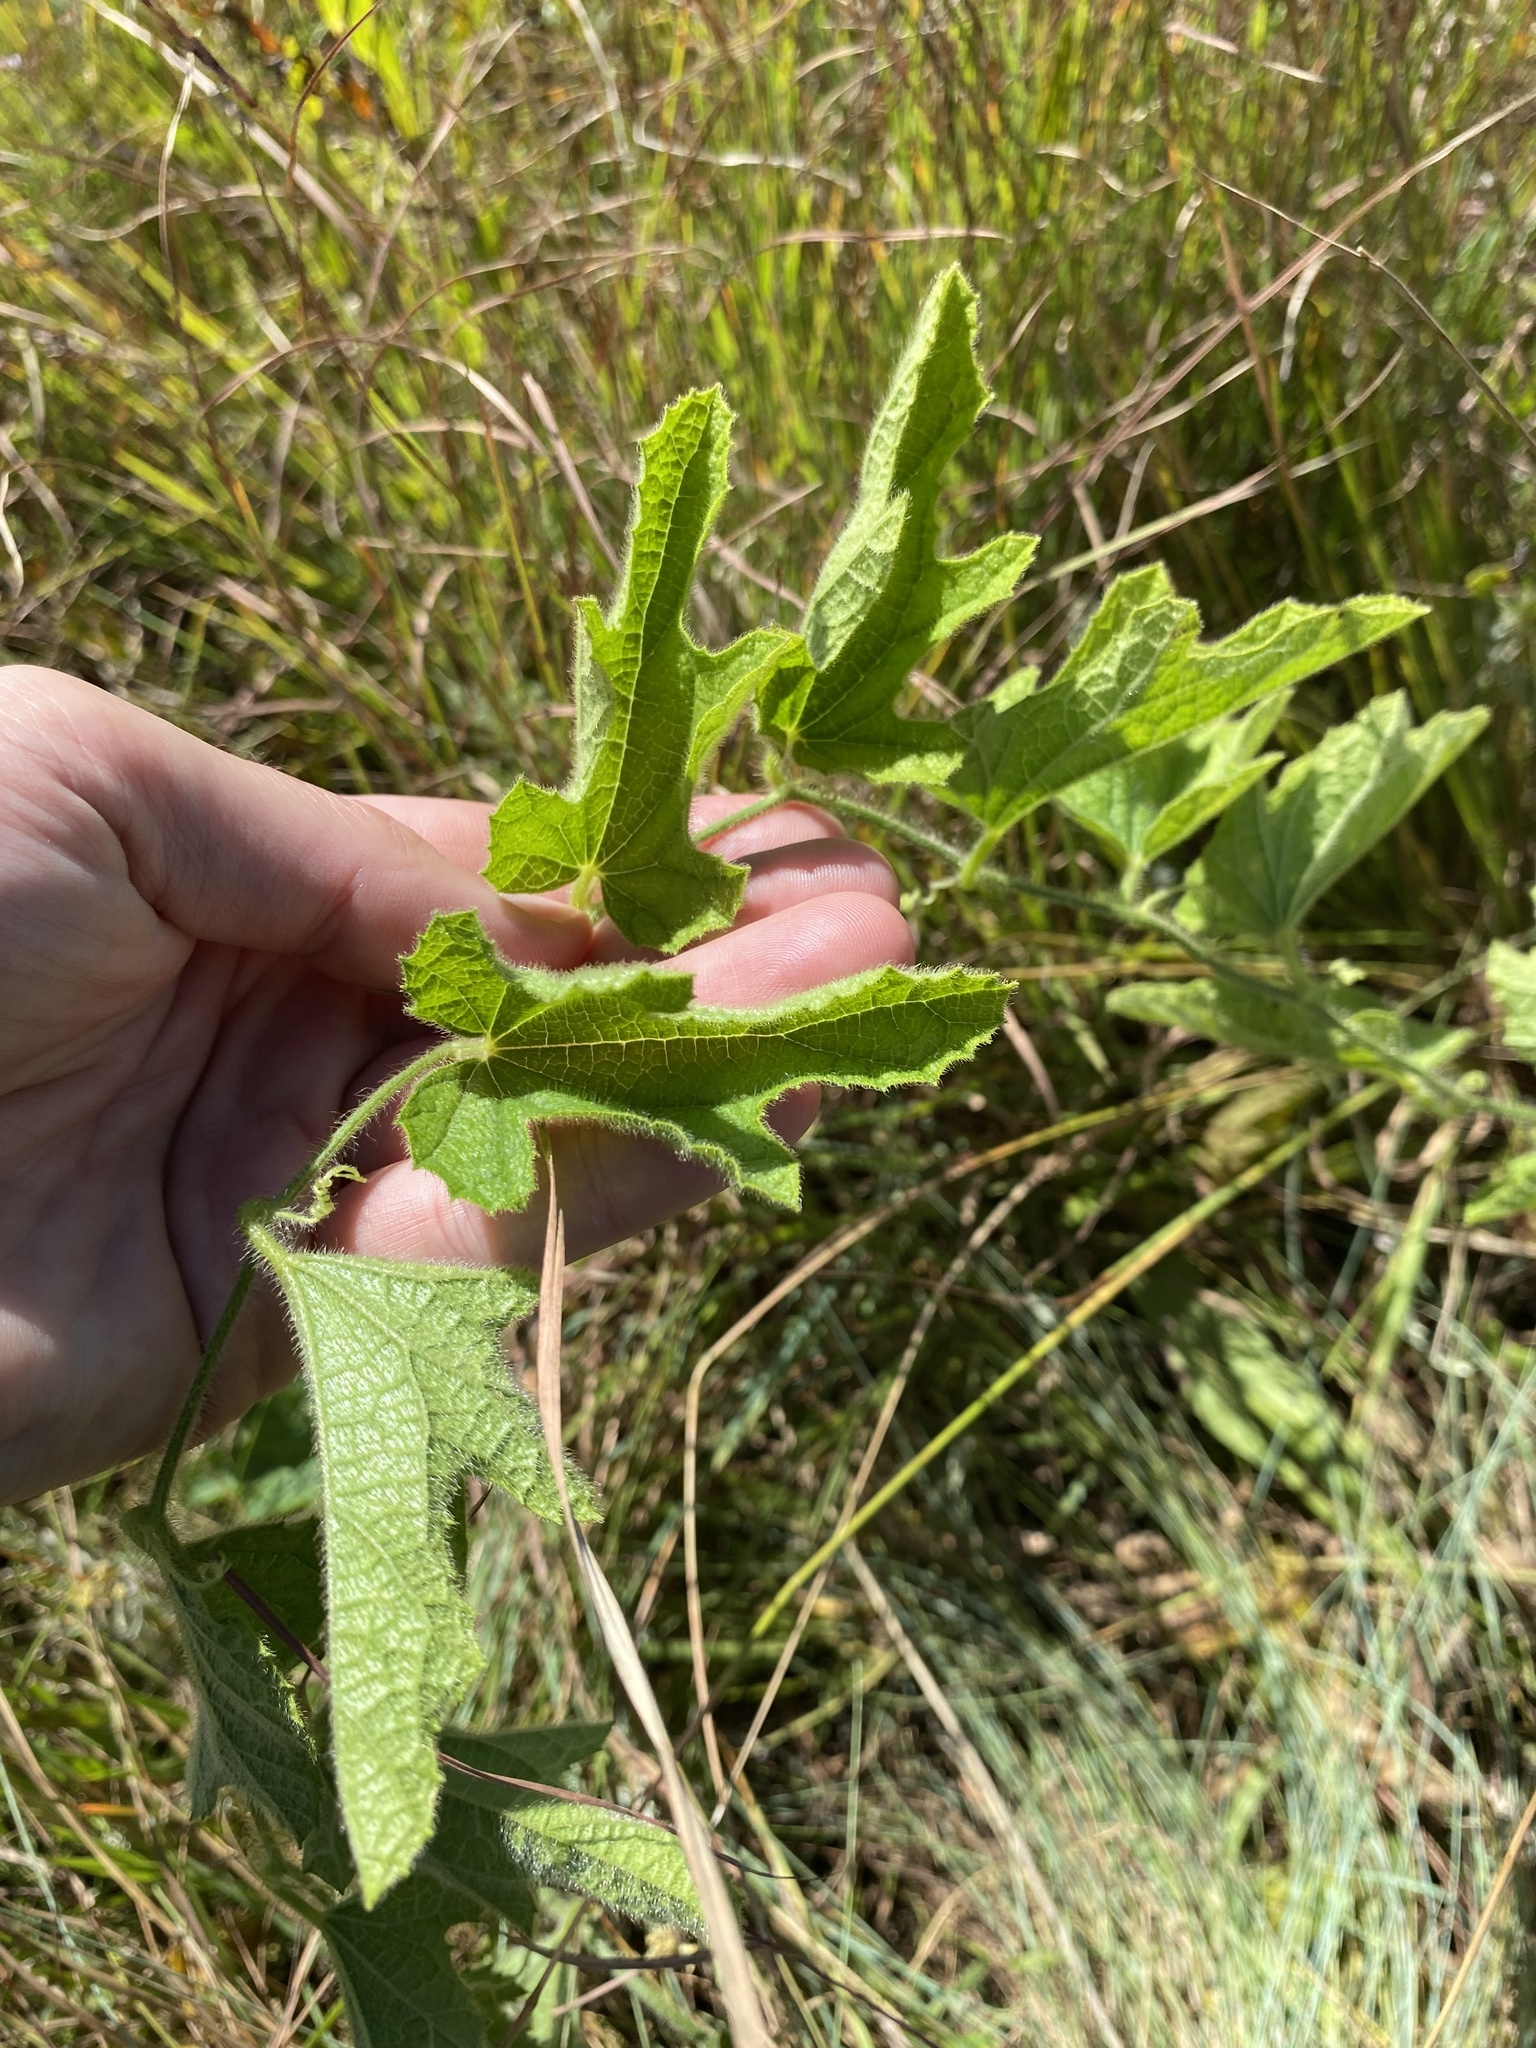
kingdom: Plantae
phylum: Tracheophyta
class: Magnoliopsida
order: Cucurbitales
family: Cucurbitaceae
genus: Cucumis
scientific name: Cucumis hirsutus
